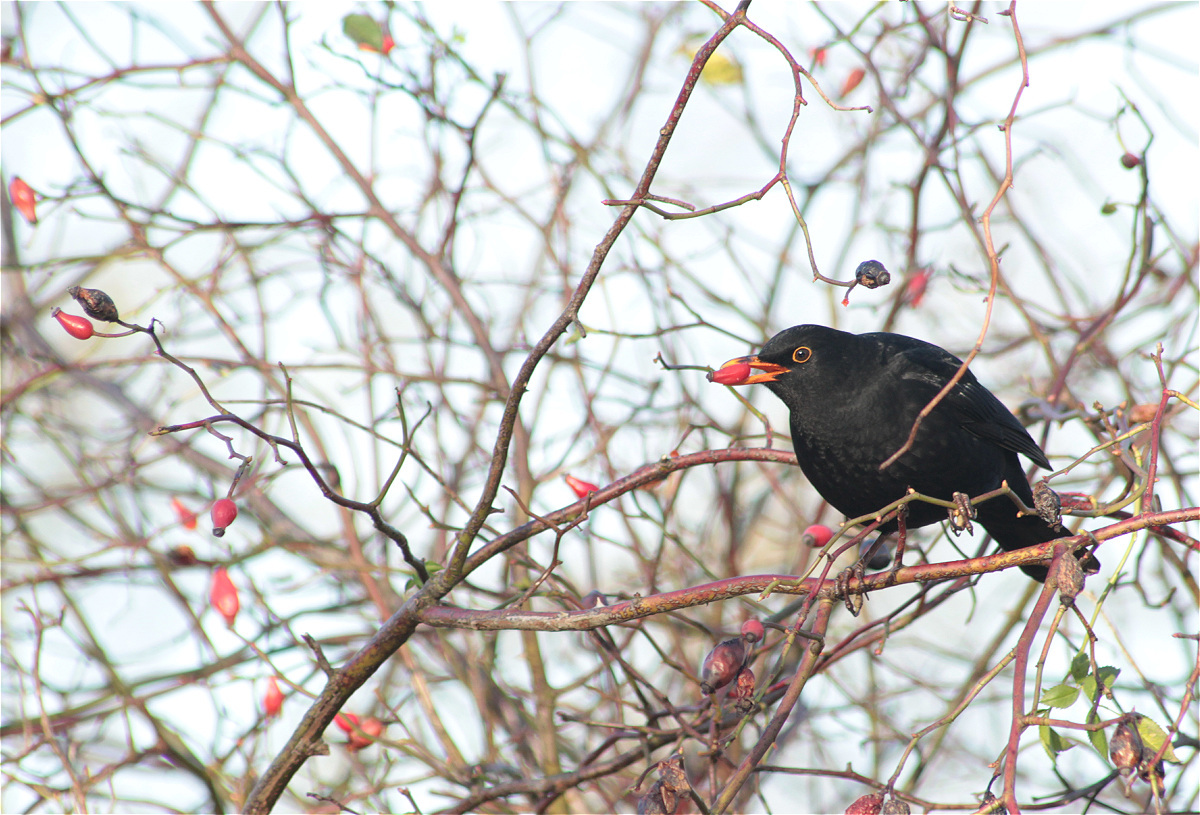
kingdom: Animalia
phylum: Chordata
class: Aves
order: Passeriformes
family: Turdidae
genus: Turdus
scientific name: Turdus merula
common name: Common blackbird
